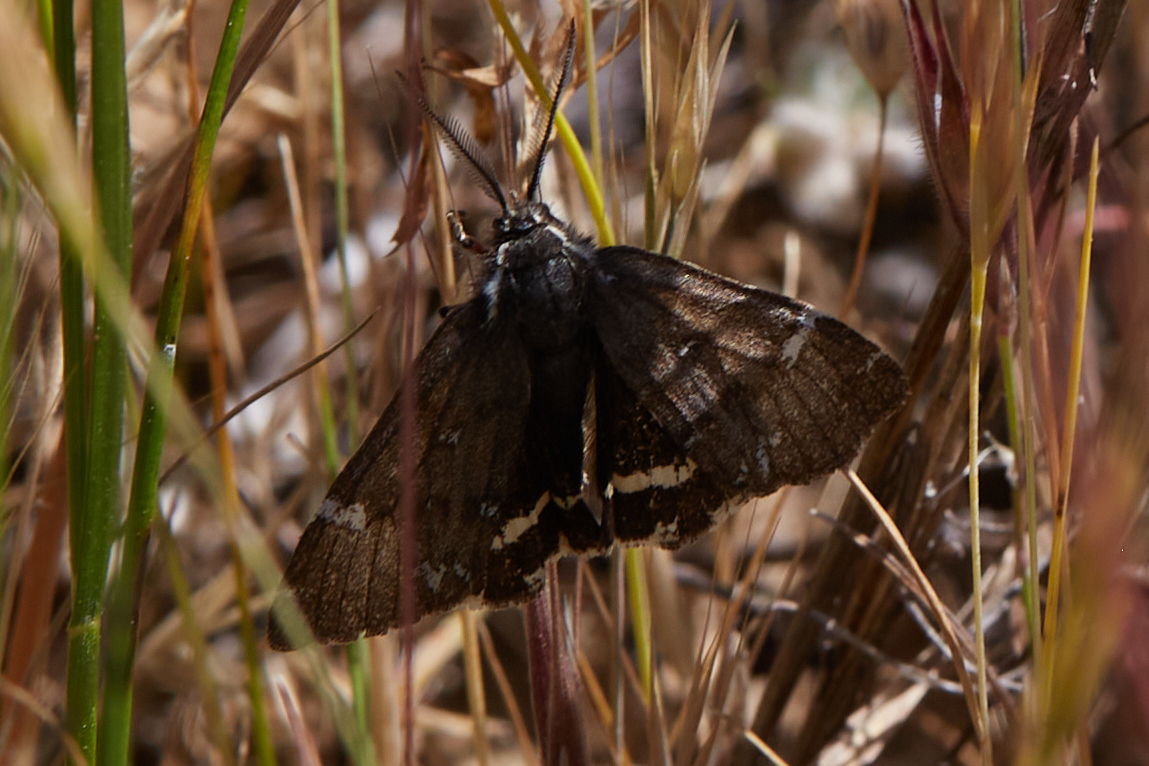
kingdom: Animalia
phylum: Arthropoda
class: Insecta
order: Lepidoptera
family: Erebidae
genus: Leptarctia
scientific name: Leptarctia californiae
